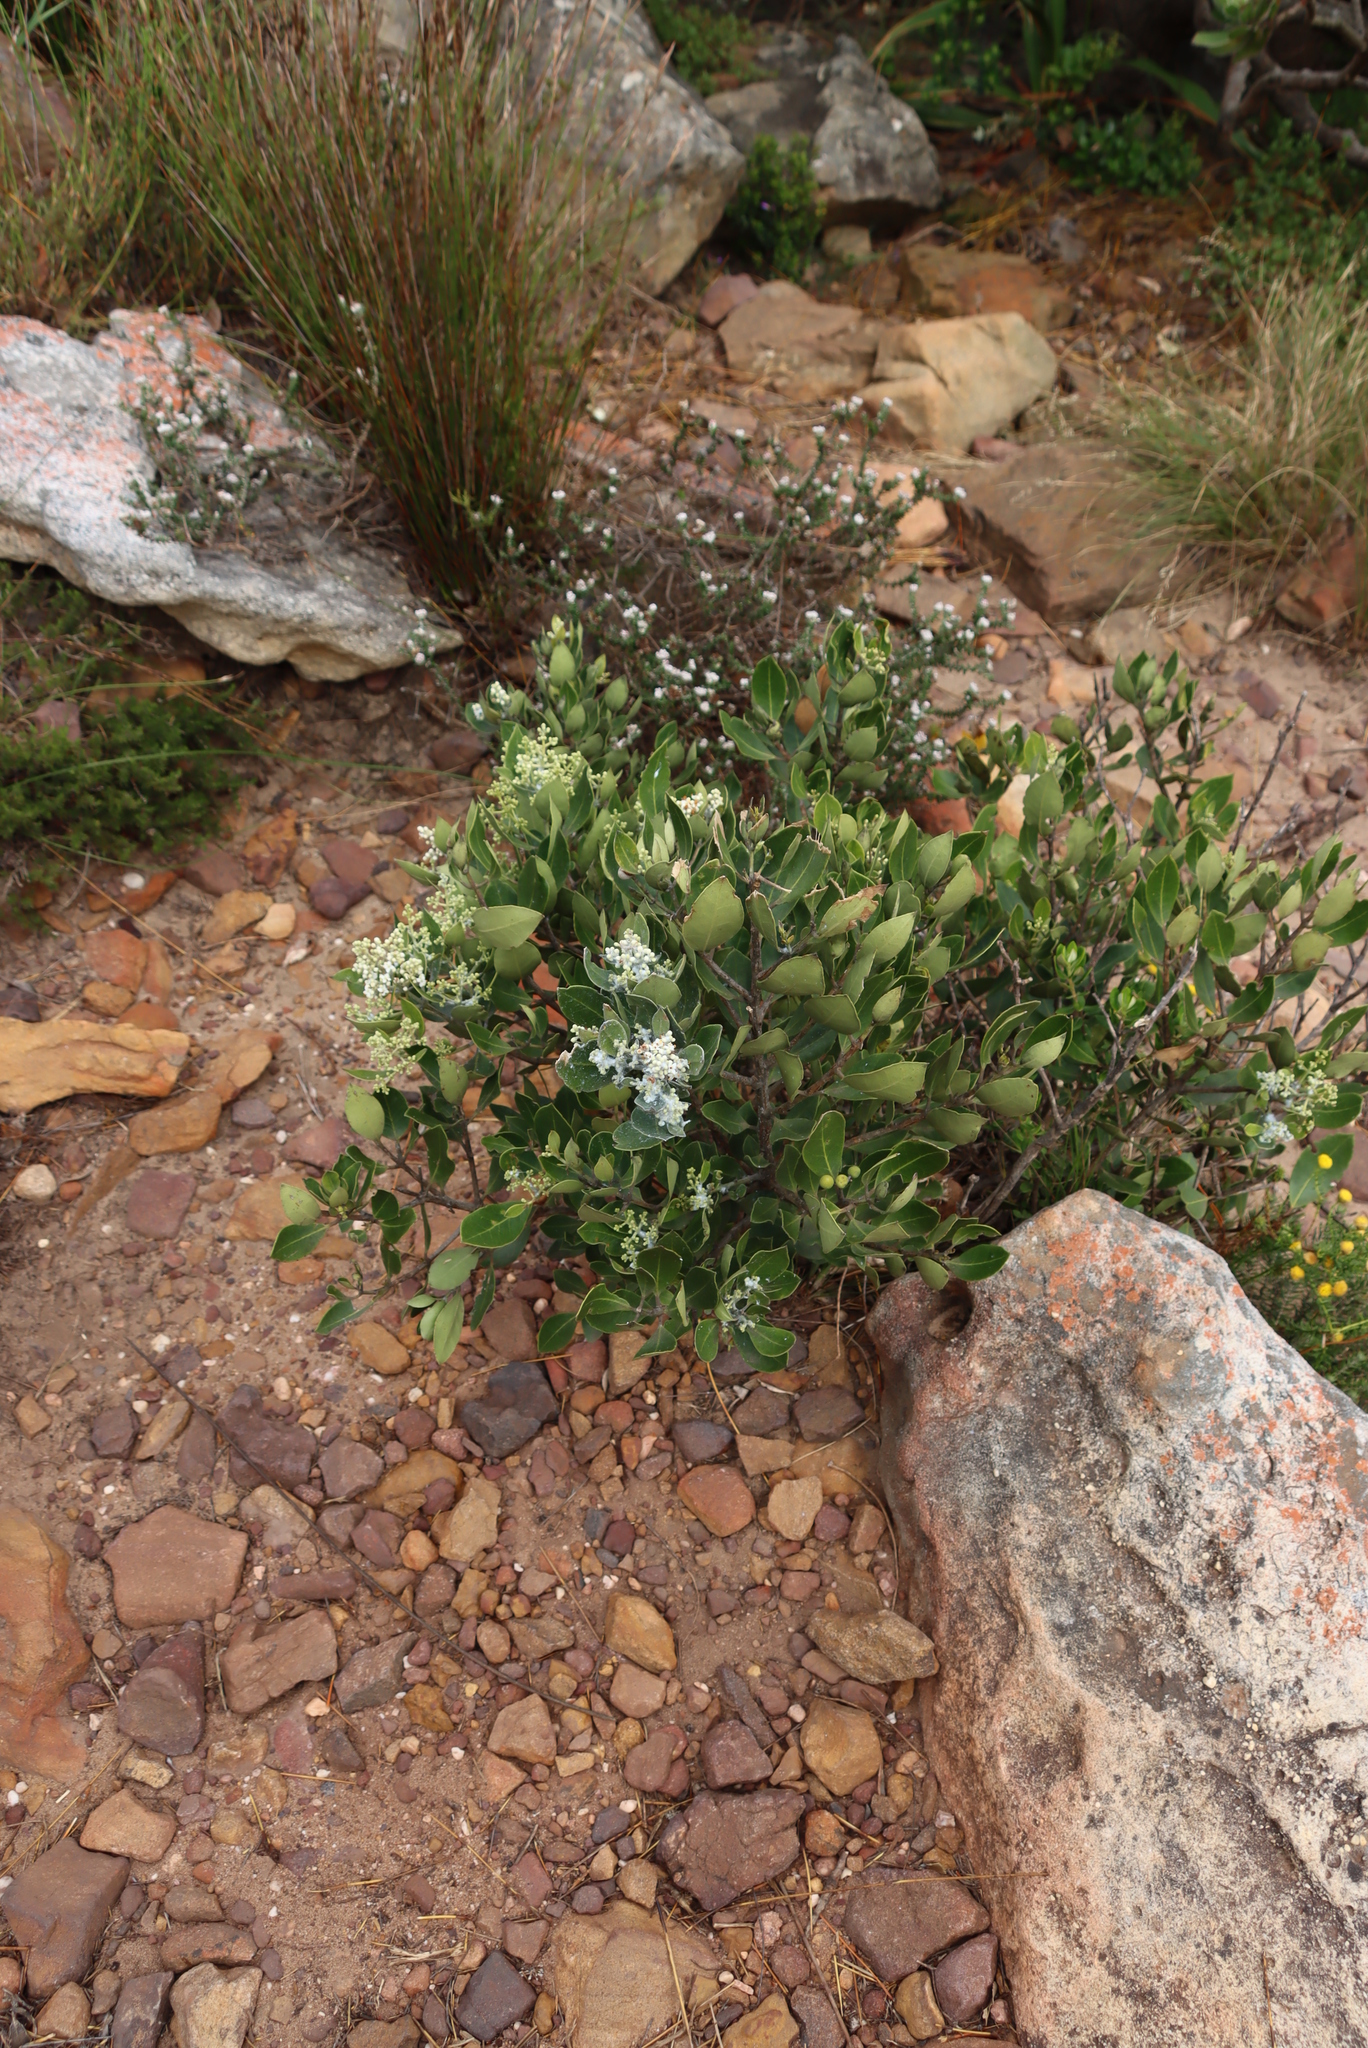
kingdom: Plantae
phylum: Tracheophyta
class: Magnoliopsida
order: Lamiales
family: Oleaceae
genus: Olea
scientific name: Olea capensis
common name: Black ironwood
